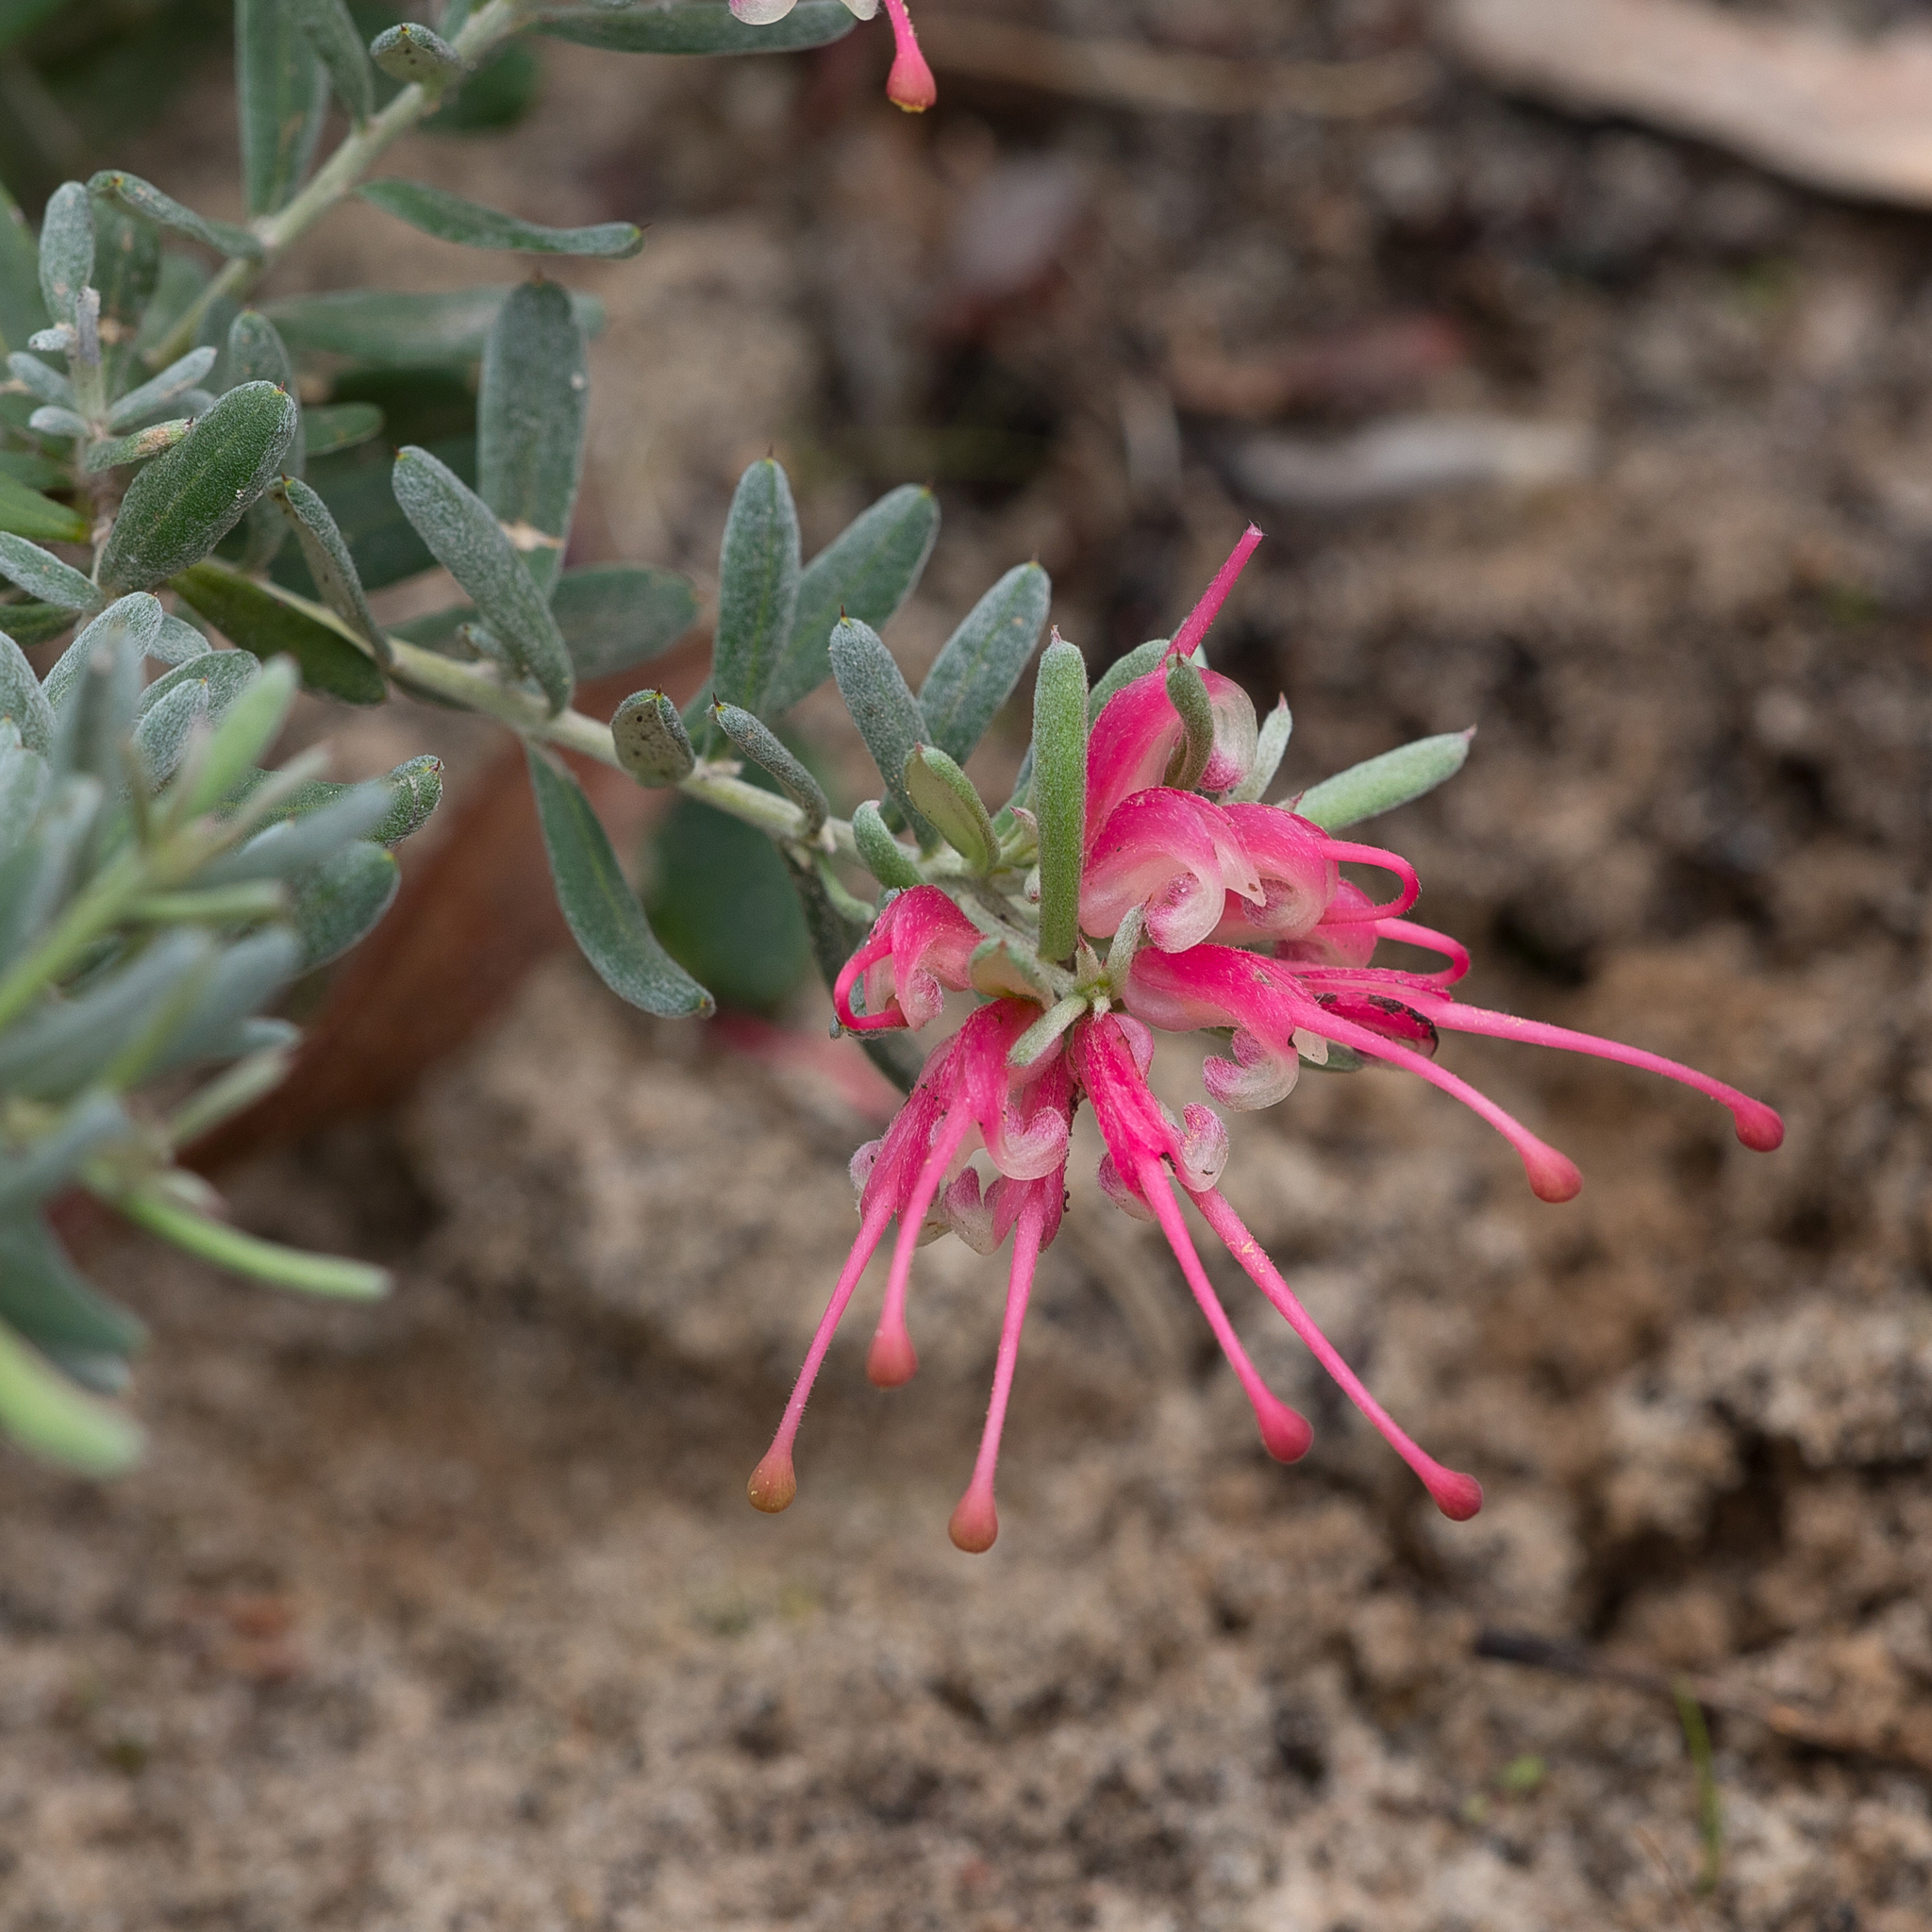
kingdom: Plantae
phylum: Tracheophyta
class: Magnoliopsida
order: Proteales
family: Proteaceae
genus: Grevillea
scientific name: Grevillea lavandulacea
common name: Lavender grevillea
